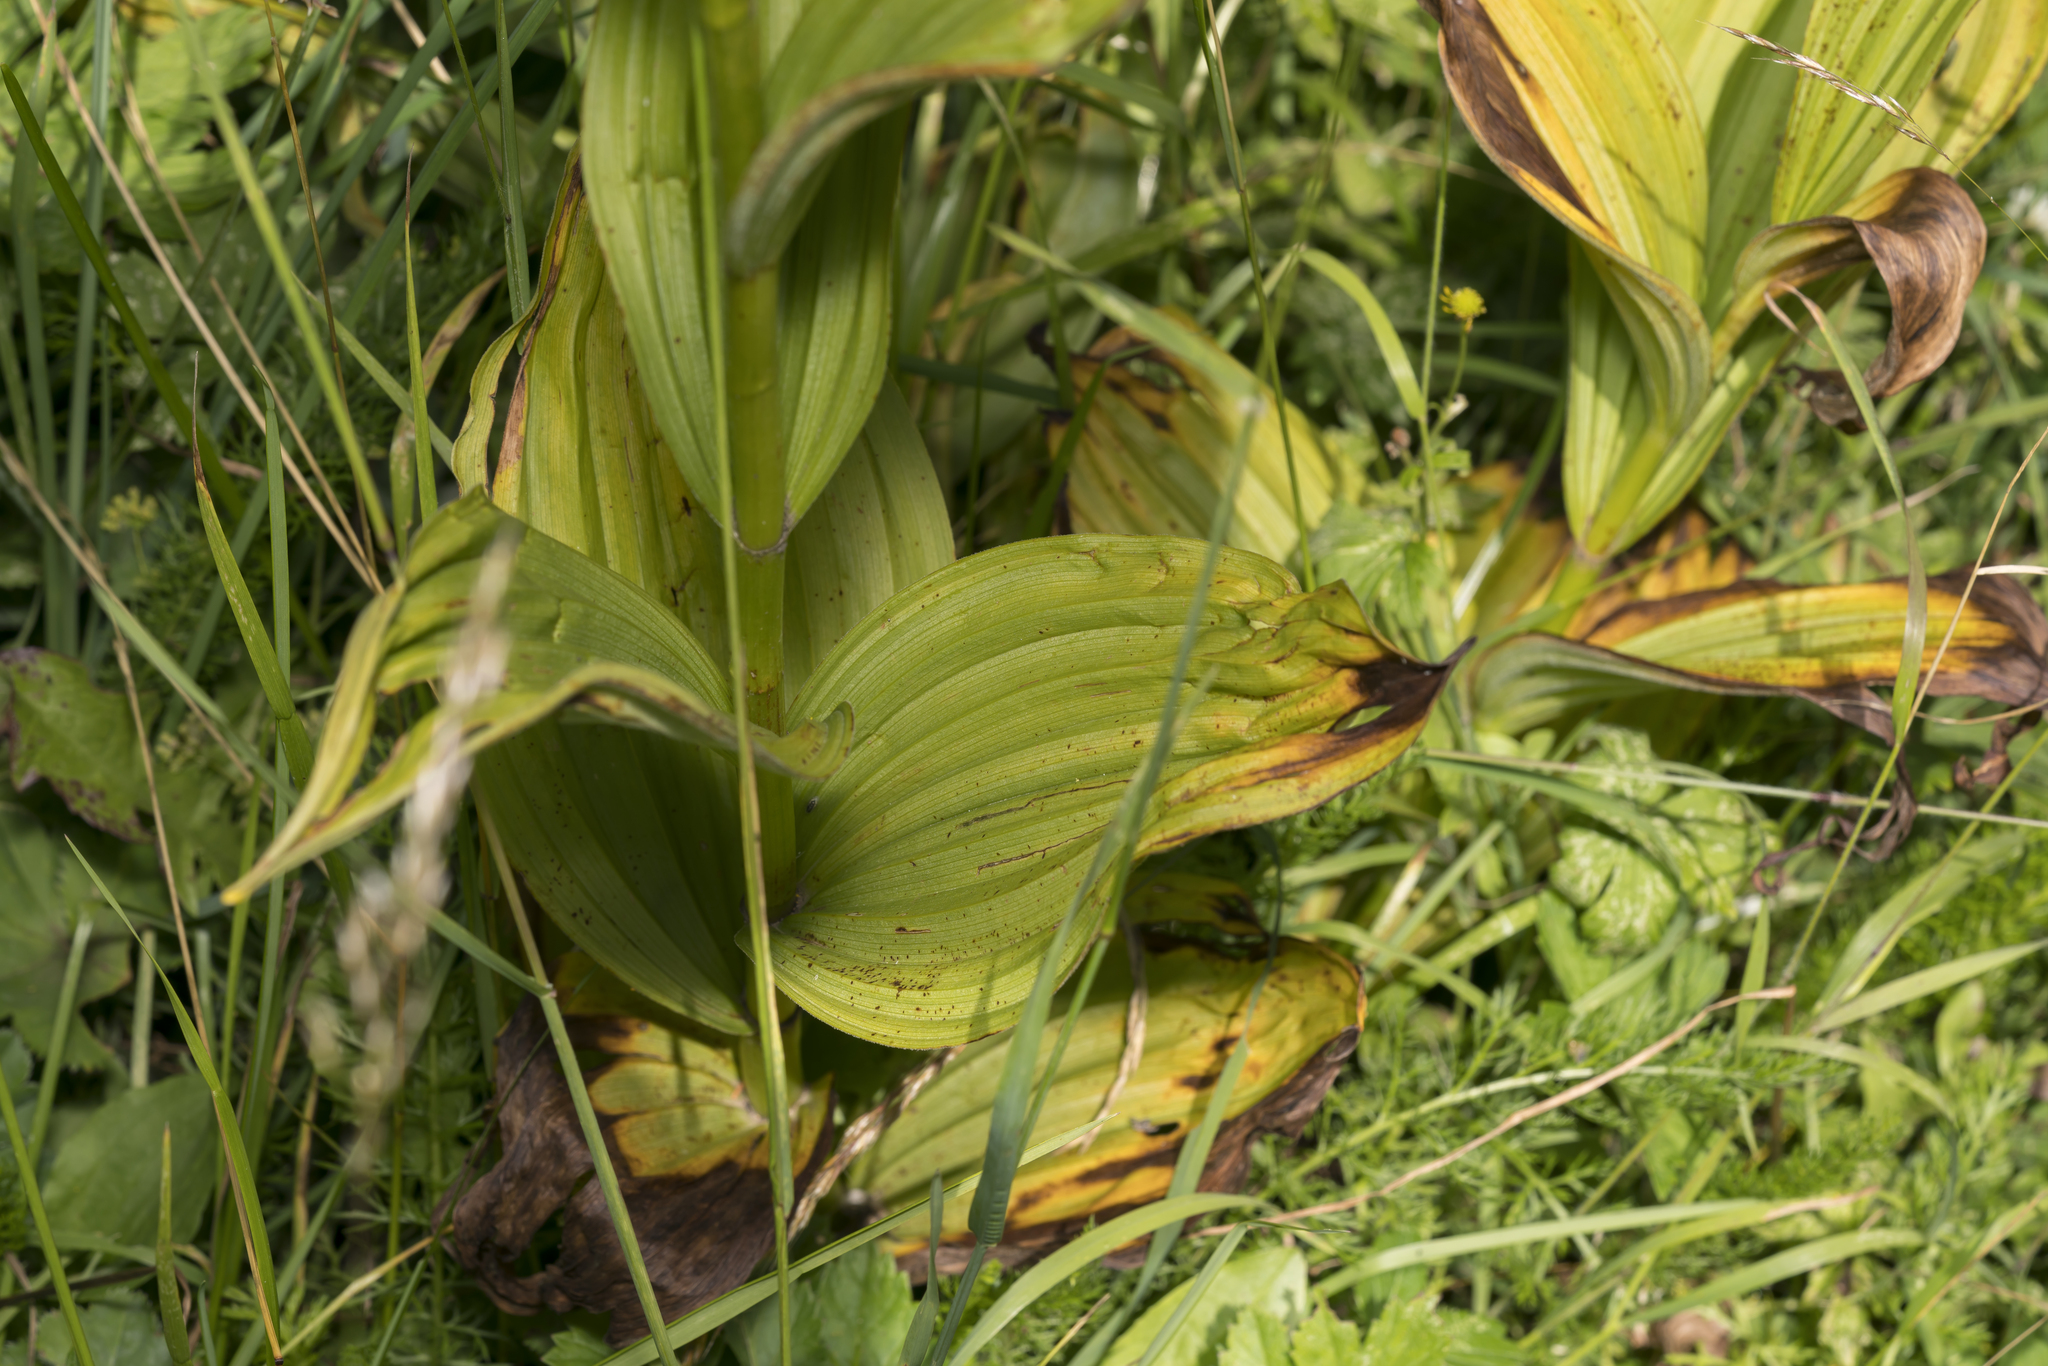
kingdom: Plantae
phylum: Tracheophyta
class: Liliopsida
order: Liliales
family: Melanthiaceae
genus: Veratrum
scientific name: Veratrum album
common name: White veratrum
